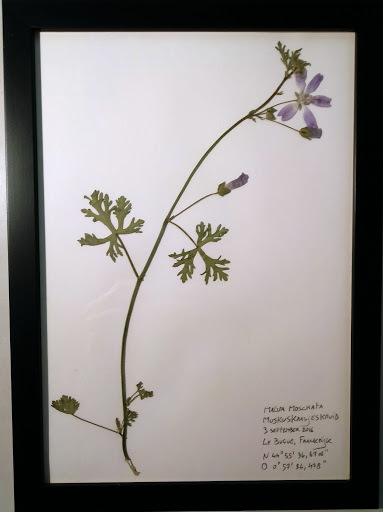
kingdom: Plantae
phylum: Tracheophyta
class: Magnoliopsida
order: Malvales
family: Malvaceae
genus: Malva
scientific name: Malva moschata
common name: Musk mallow
